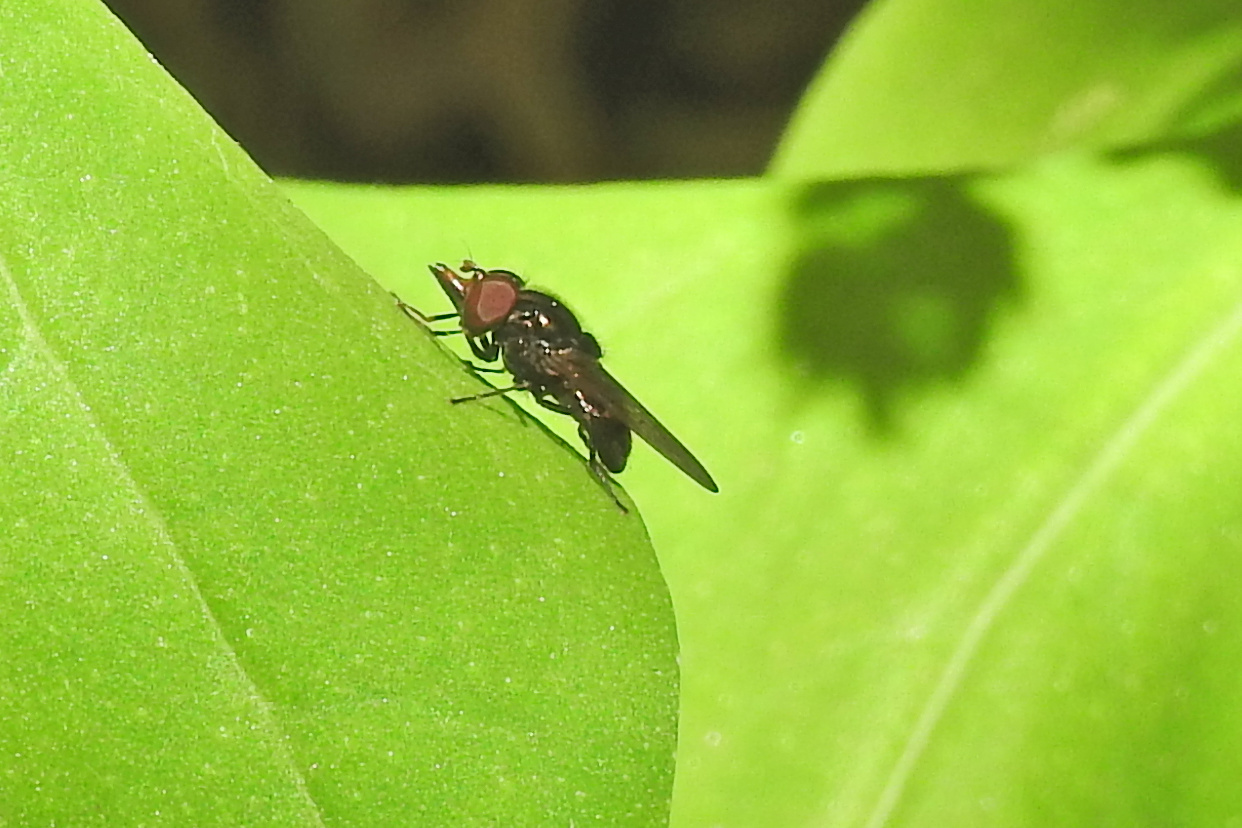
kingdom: Animalia
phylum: Arthropoda
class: Insecta
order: Diptera
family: Syrphidae
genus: Rhingia
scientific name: Rhingia nasica
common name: American snout fly
